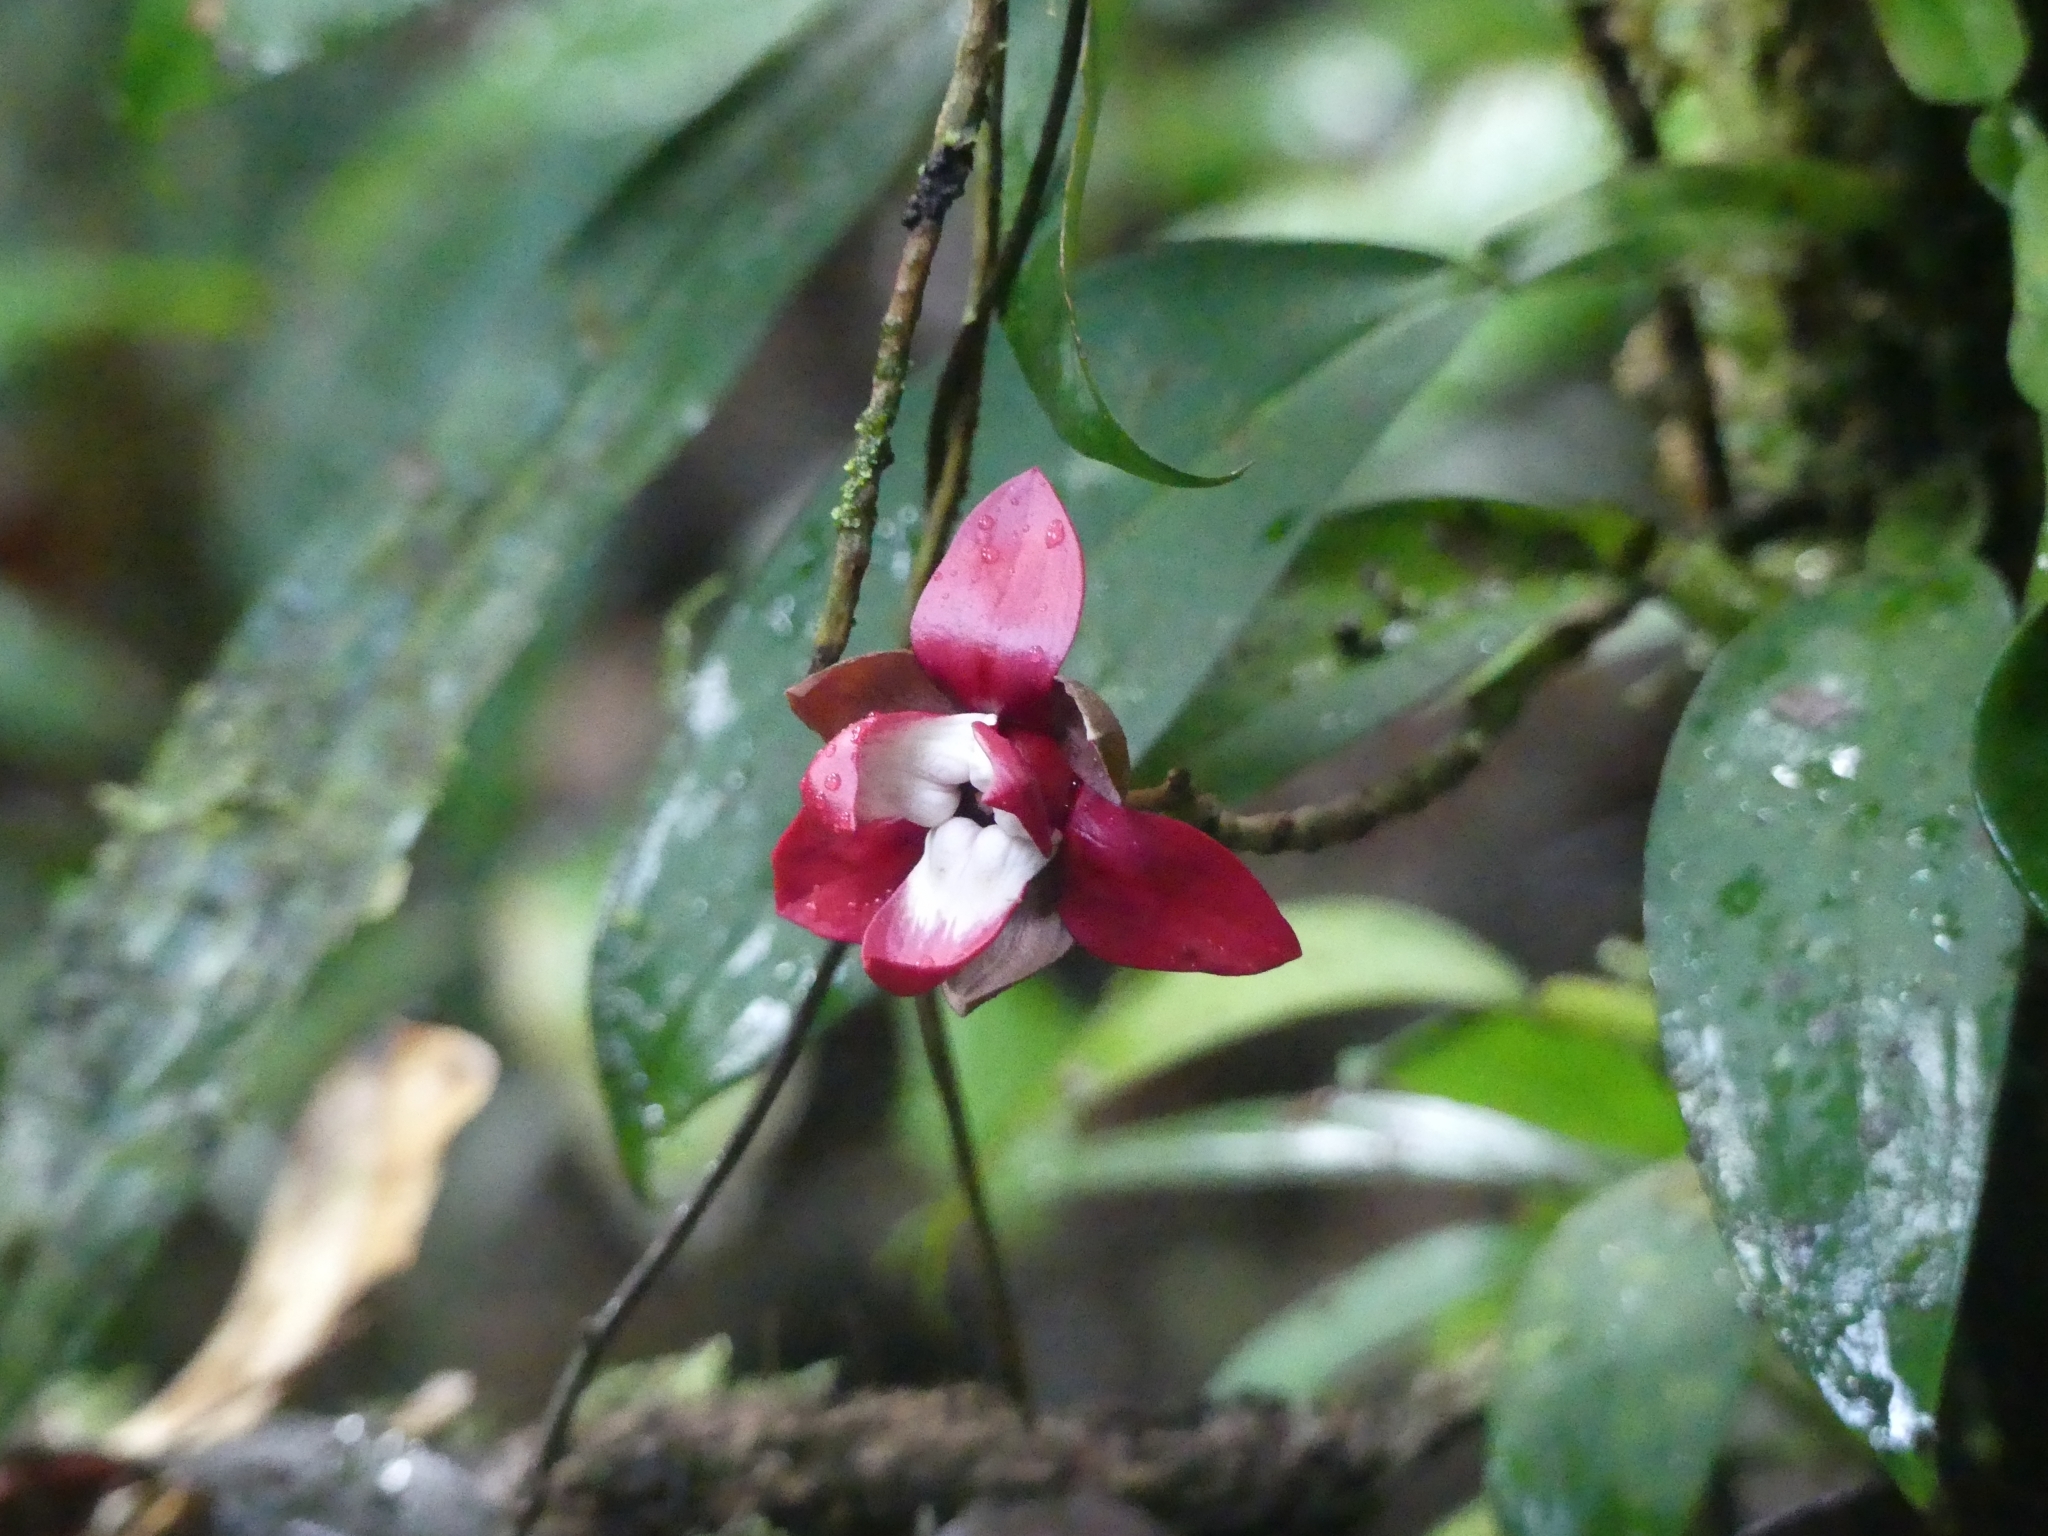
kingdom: Plantae
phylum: Tracheophyta
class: Magnoliopsida
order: Magnoliales
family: Annonaceae
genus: Duguetia
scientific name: Duguetia cadaverica
